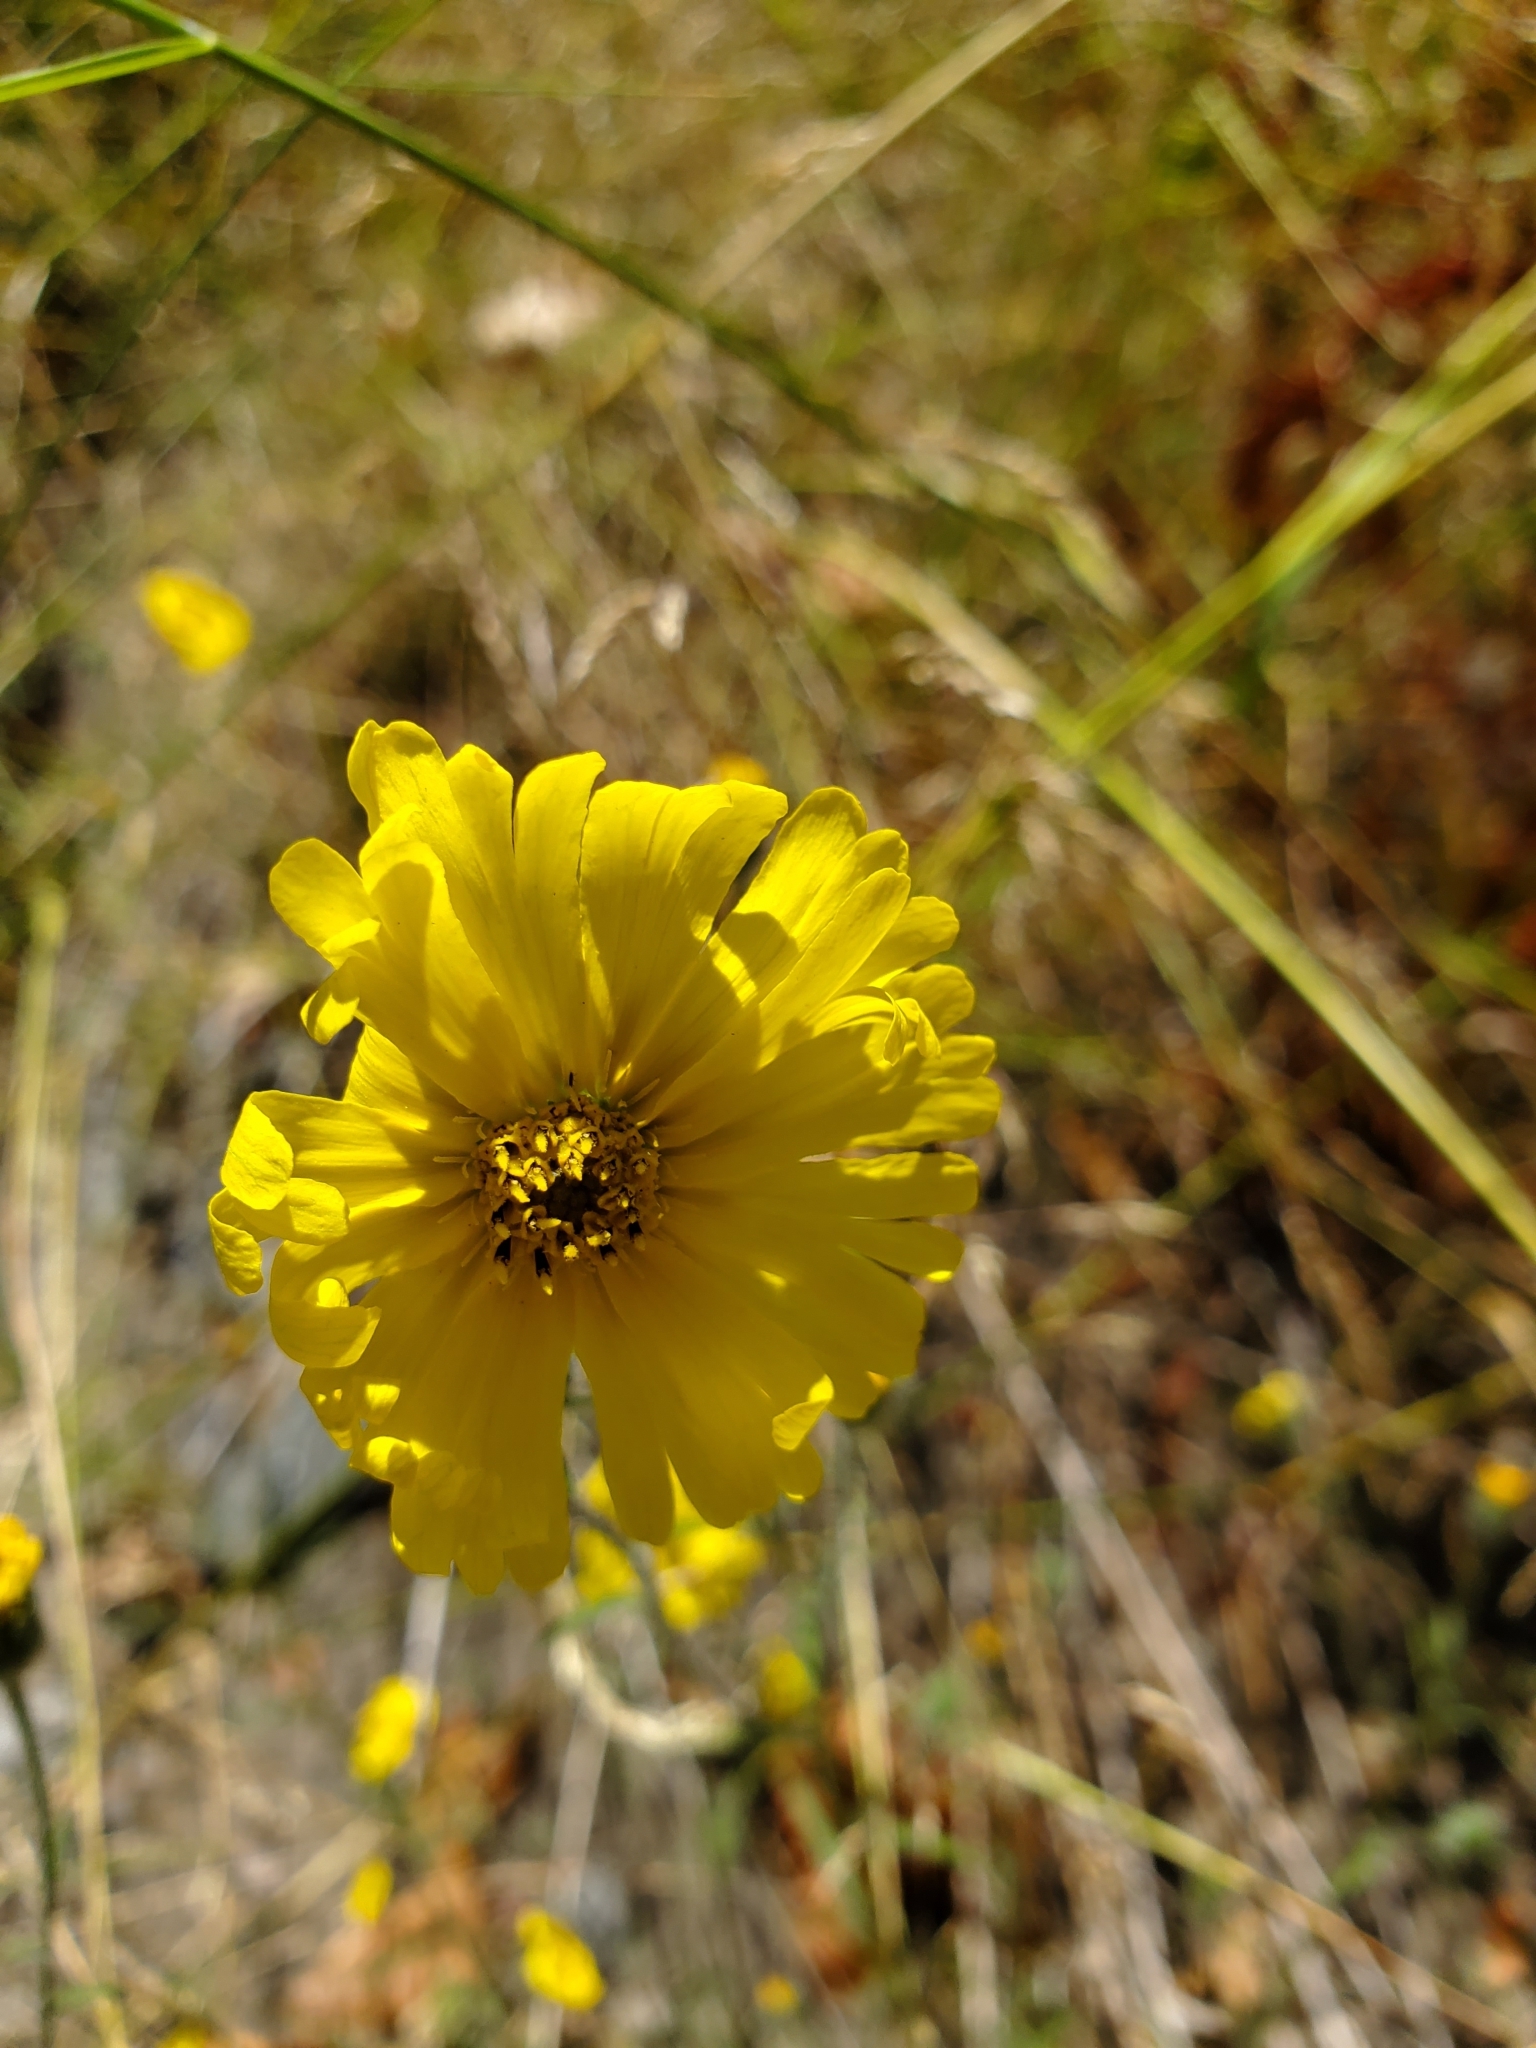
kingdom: Plantae
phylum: Tracheophyta
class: Magnoliopsida
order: Asterales
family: Asteraceae
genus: Madia
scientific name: Madia elegans
